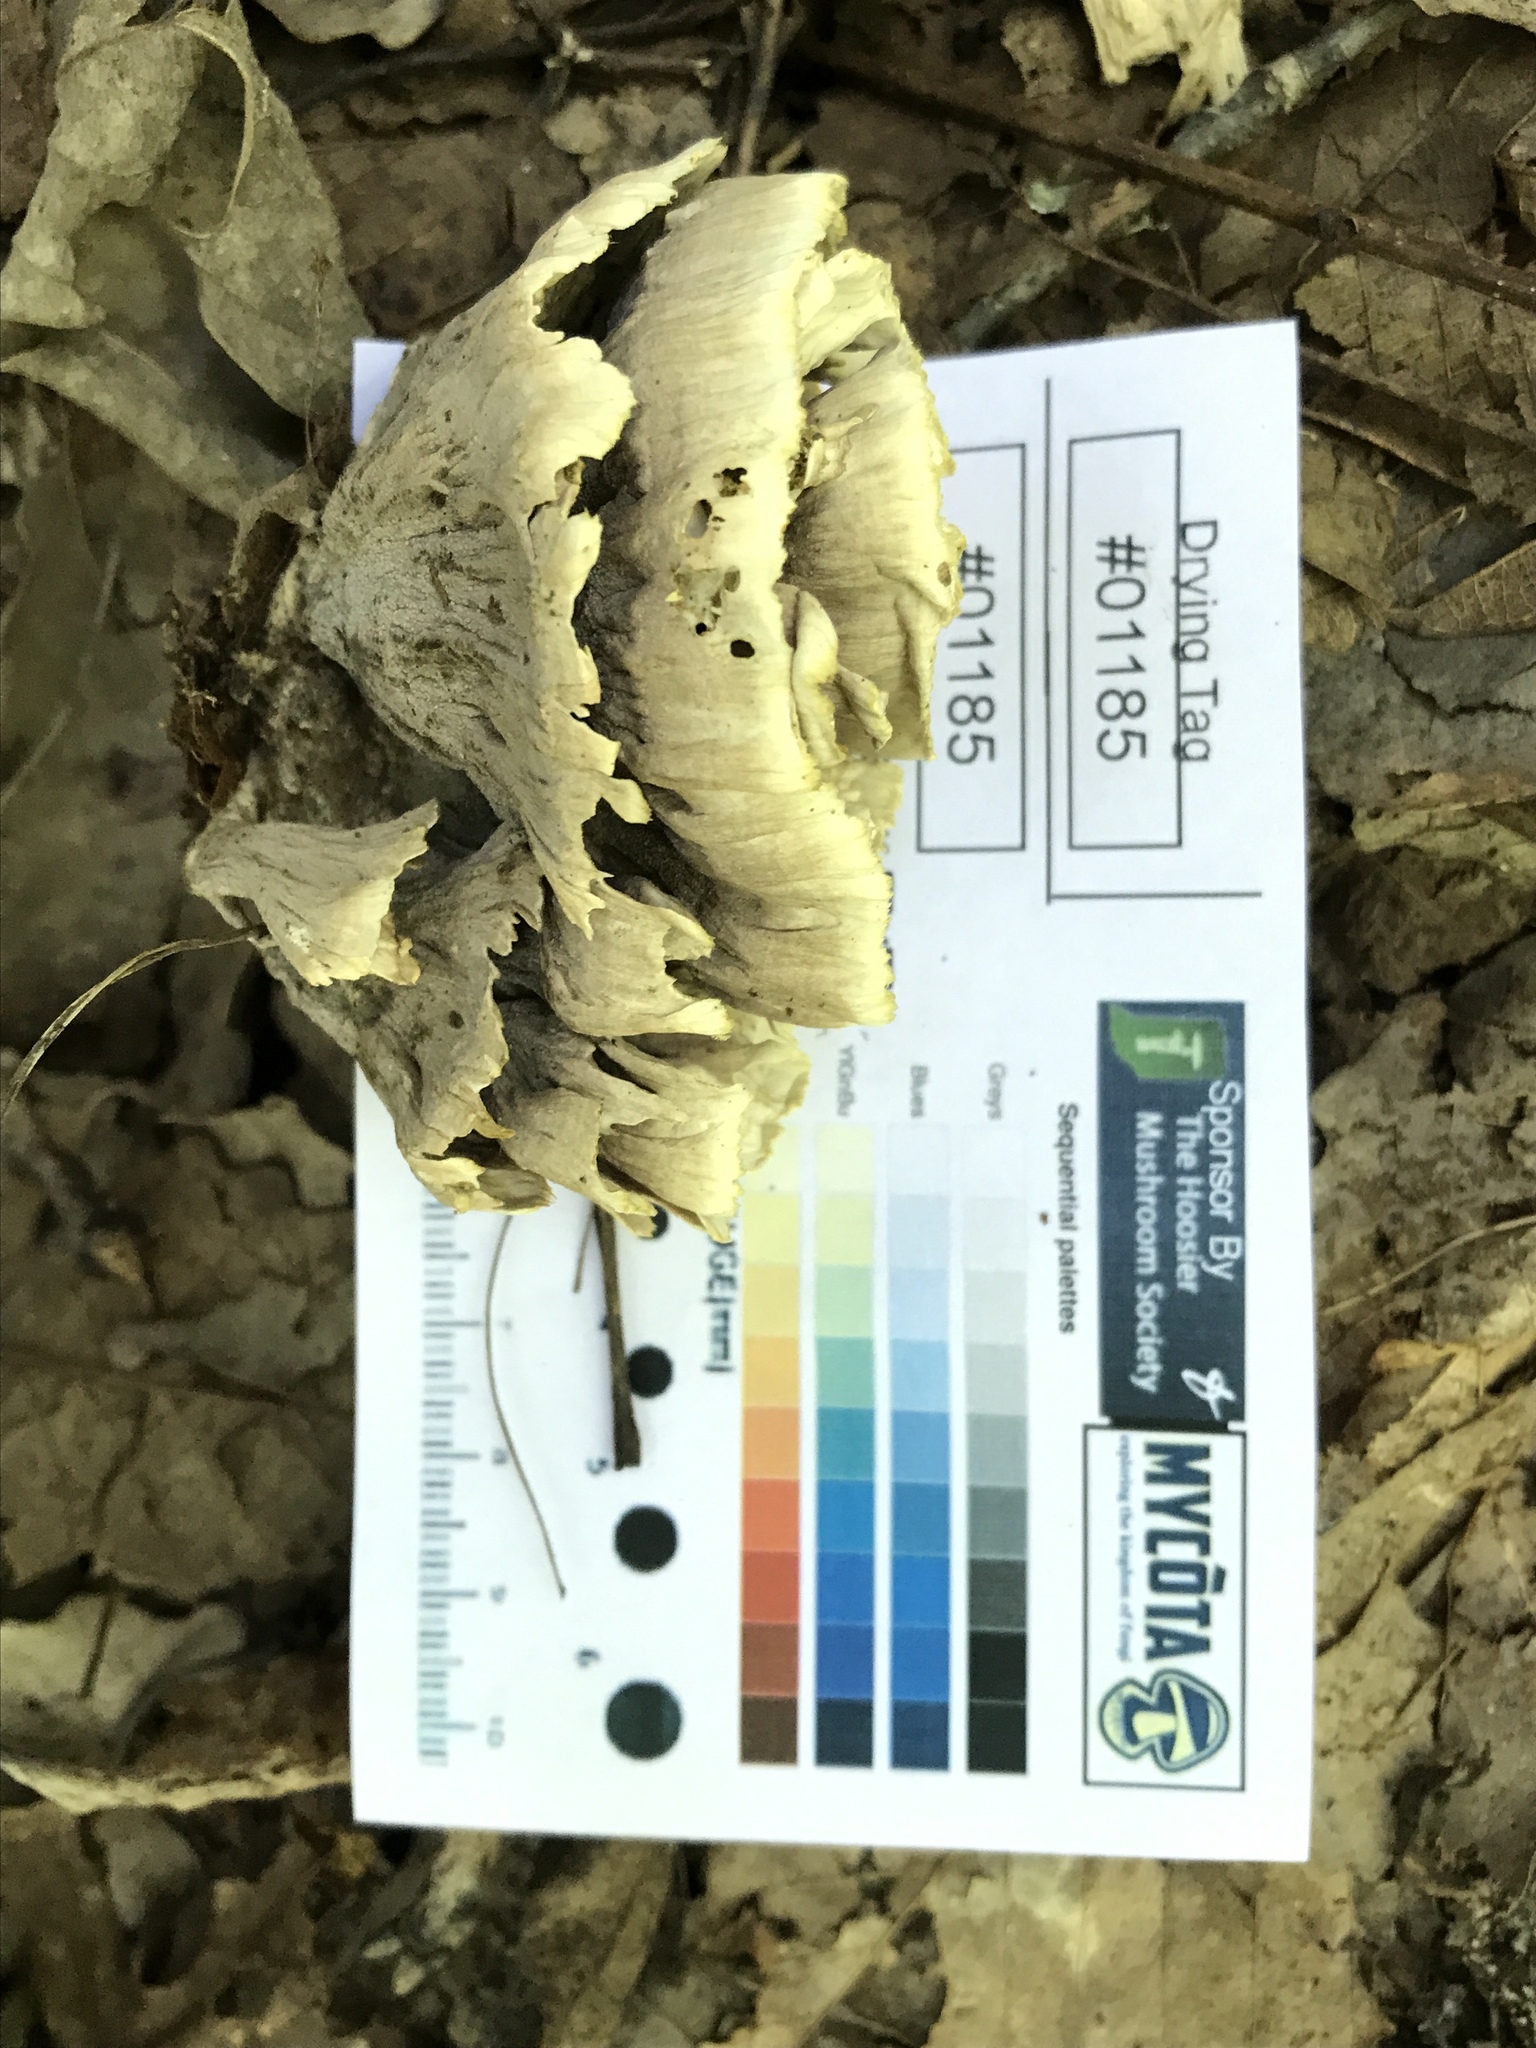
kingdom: Fungi
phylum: Basidiomycota
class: Agaricomycetes
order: Thelephorales
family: Thelephoraceae
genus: Thelephora
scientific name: Thelephora vialis
